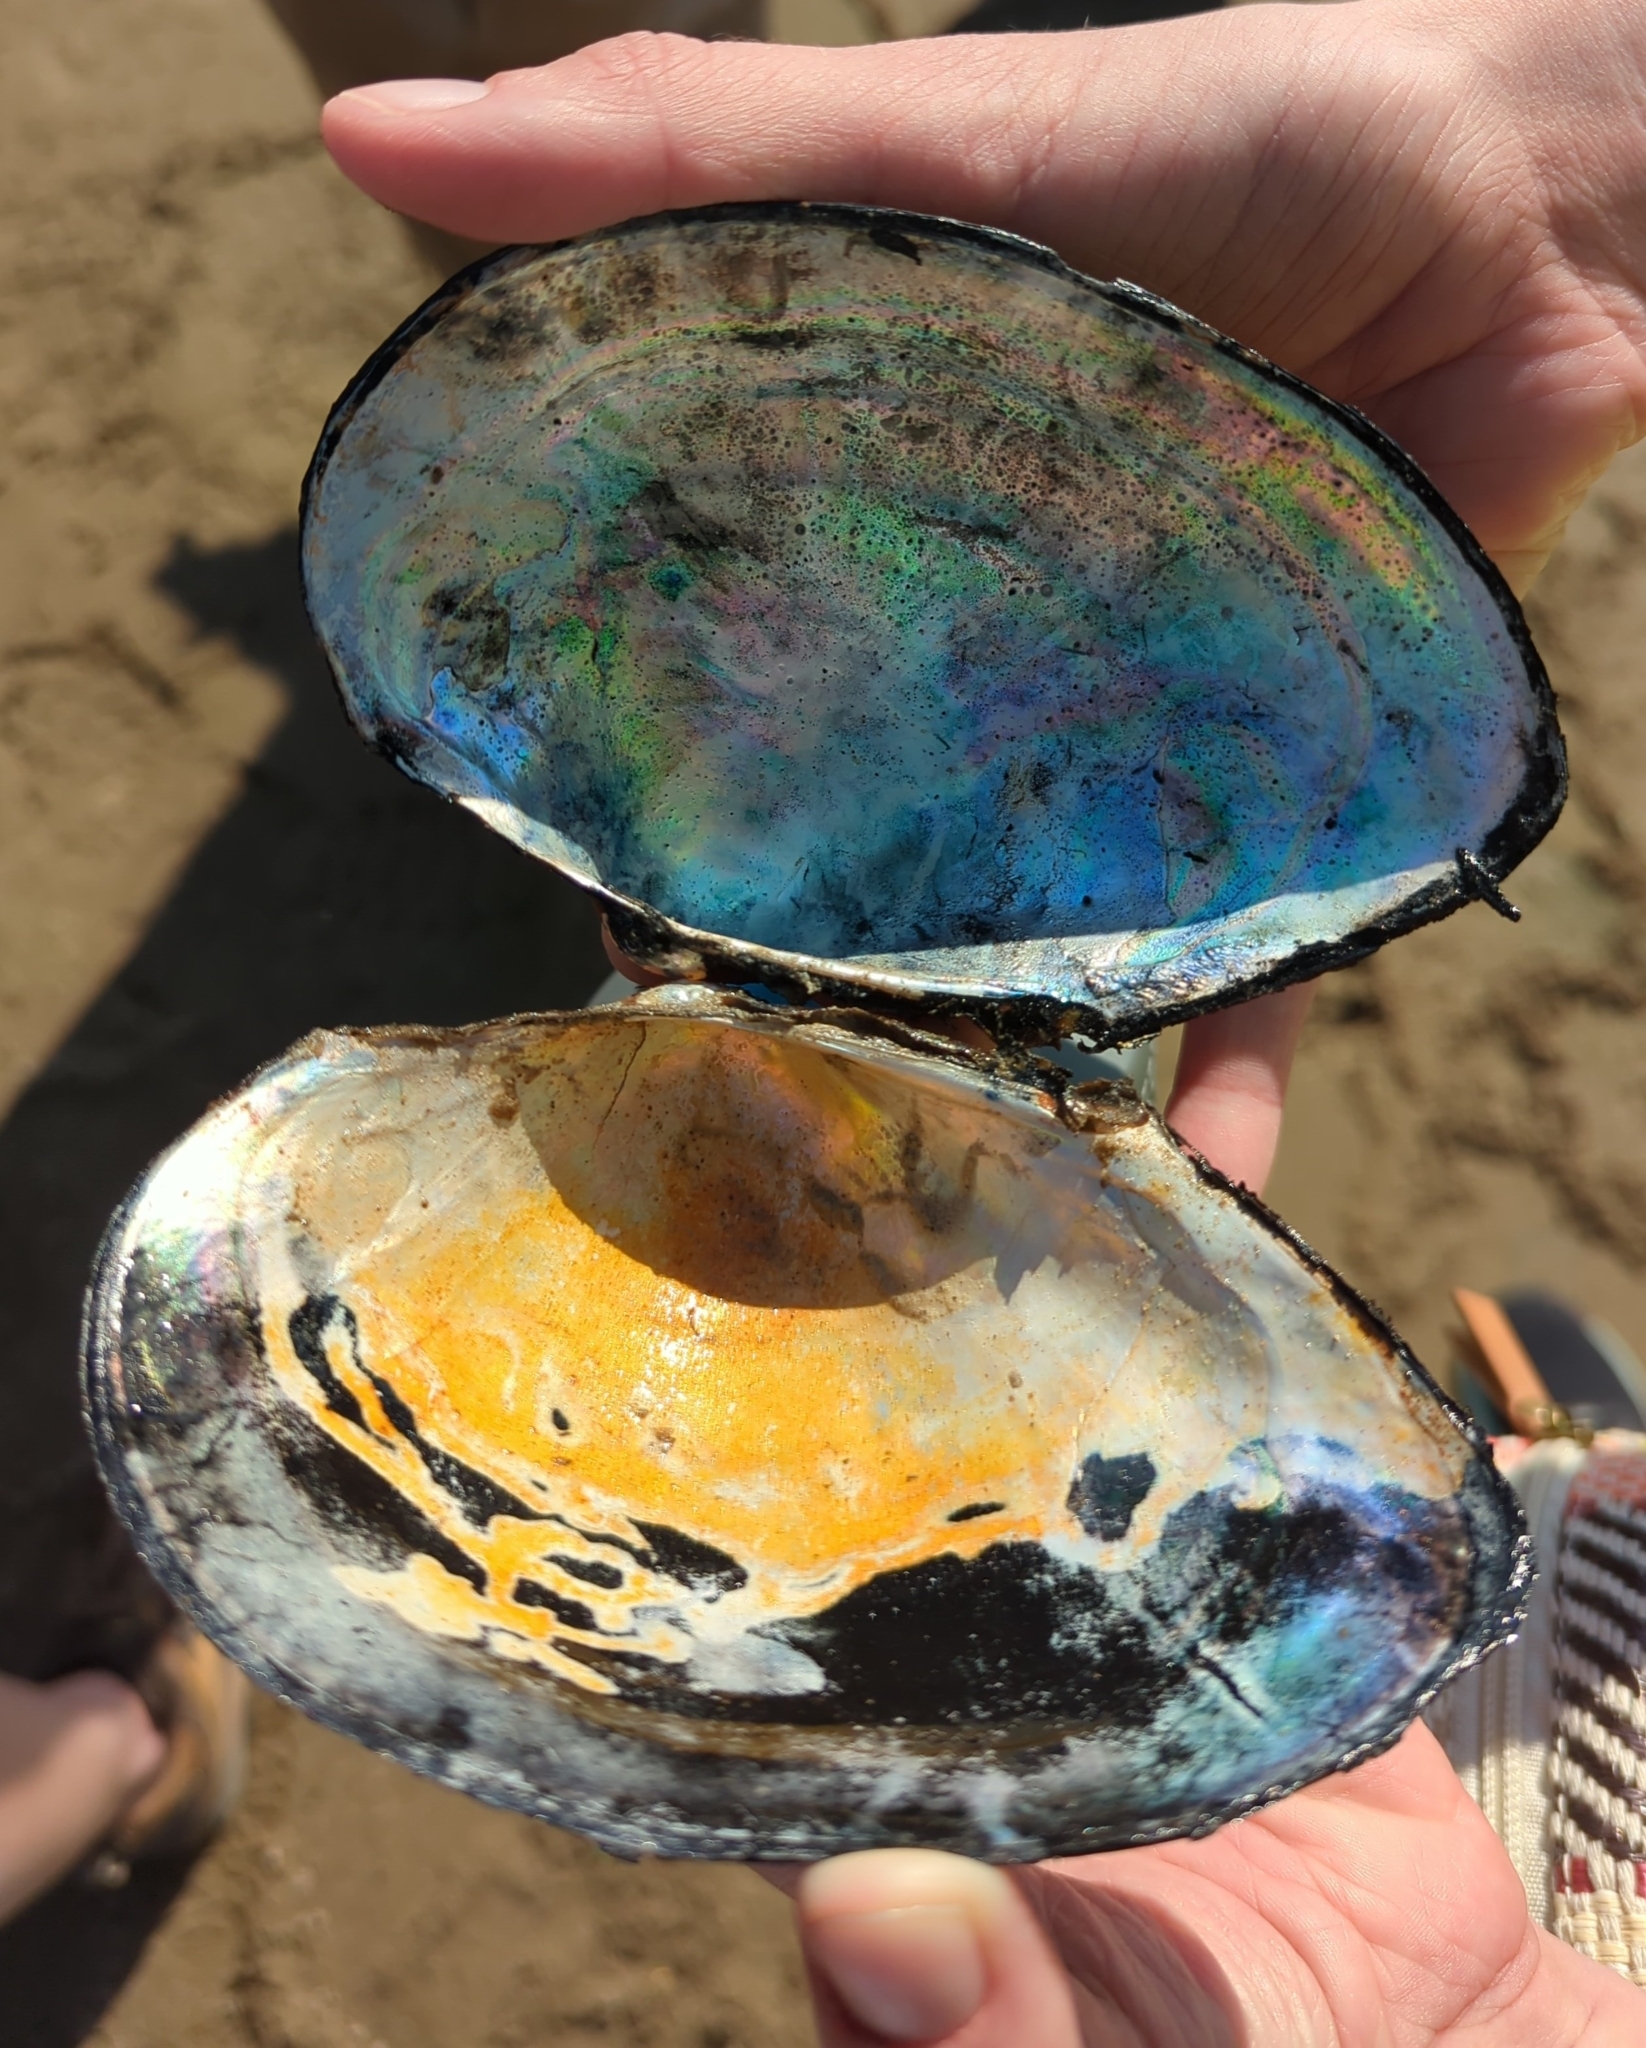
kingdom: Animalia
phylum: Mollusca
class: Bivalvia
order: Unionida
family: Unionidae
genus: Pyganodon
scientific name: Pyganodon grandis
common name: Giant floater
